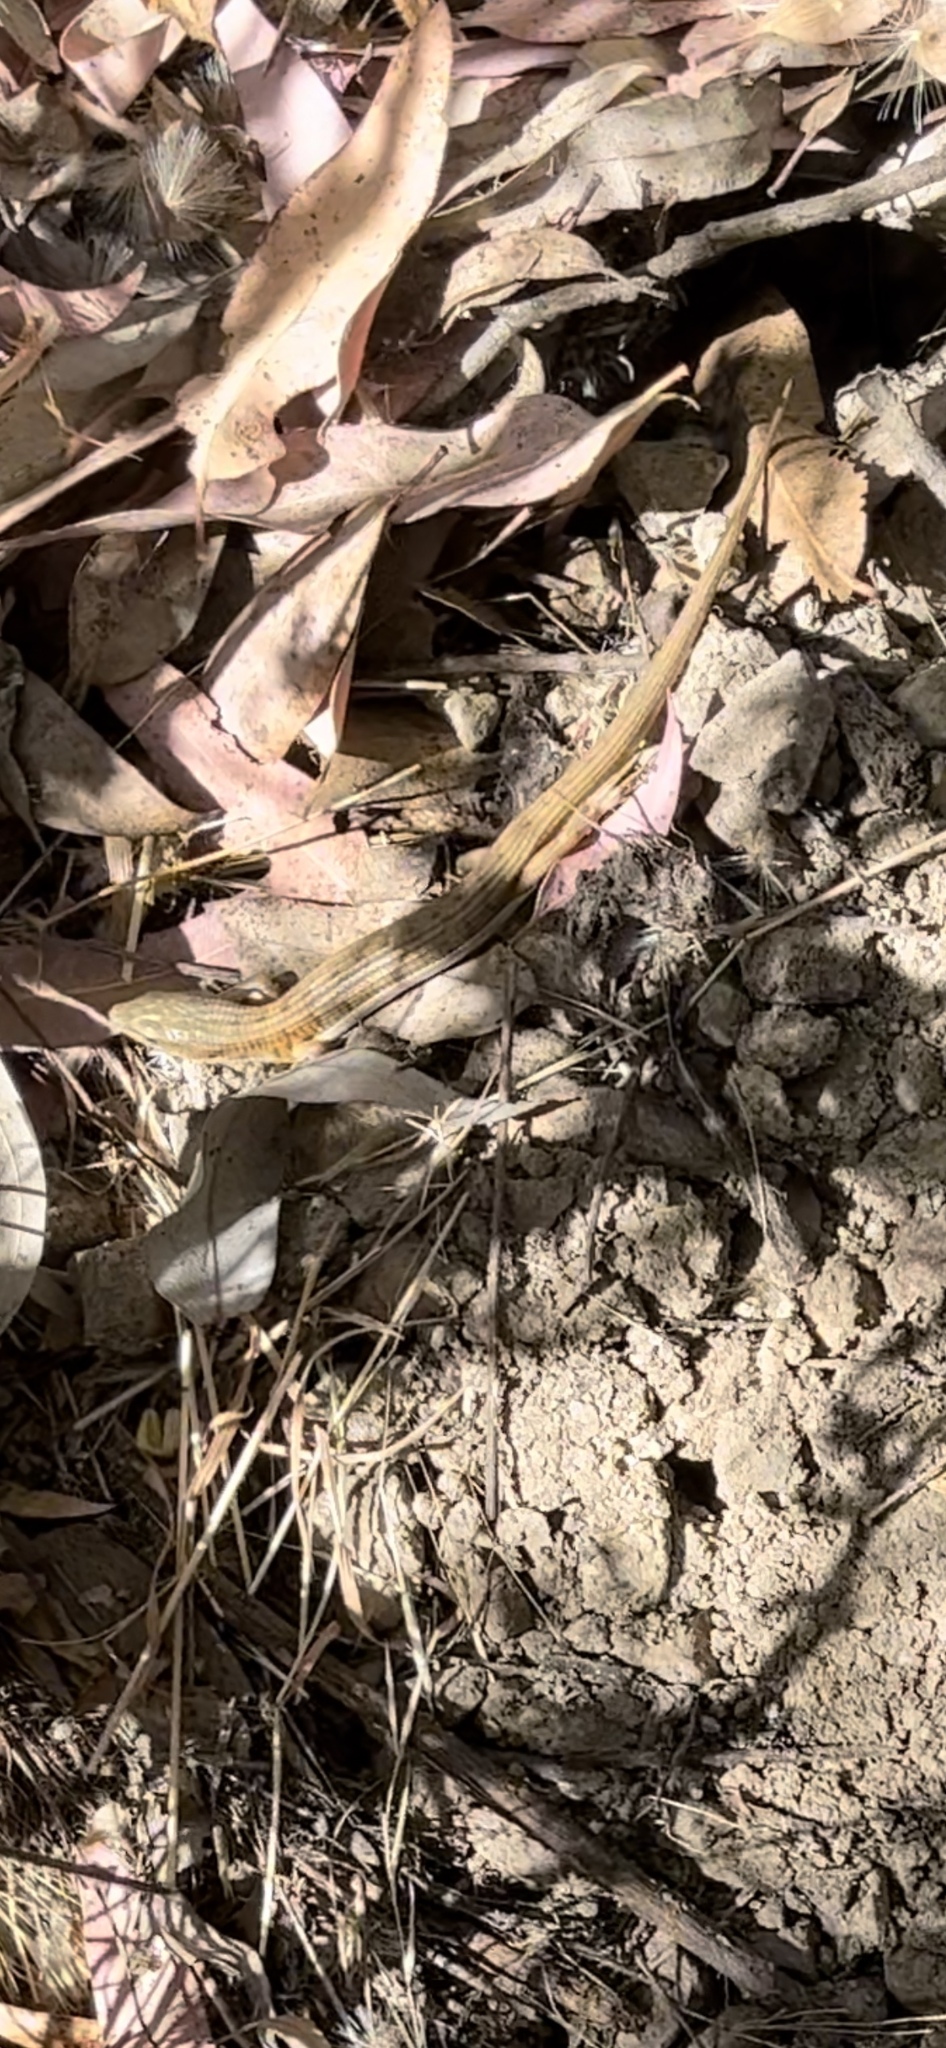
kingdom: Animalia
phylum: Chordata
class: Squamata
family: Anguidae
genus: Elgaria
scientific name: Elgaria multicarinata
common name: Southern alligator lizard
